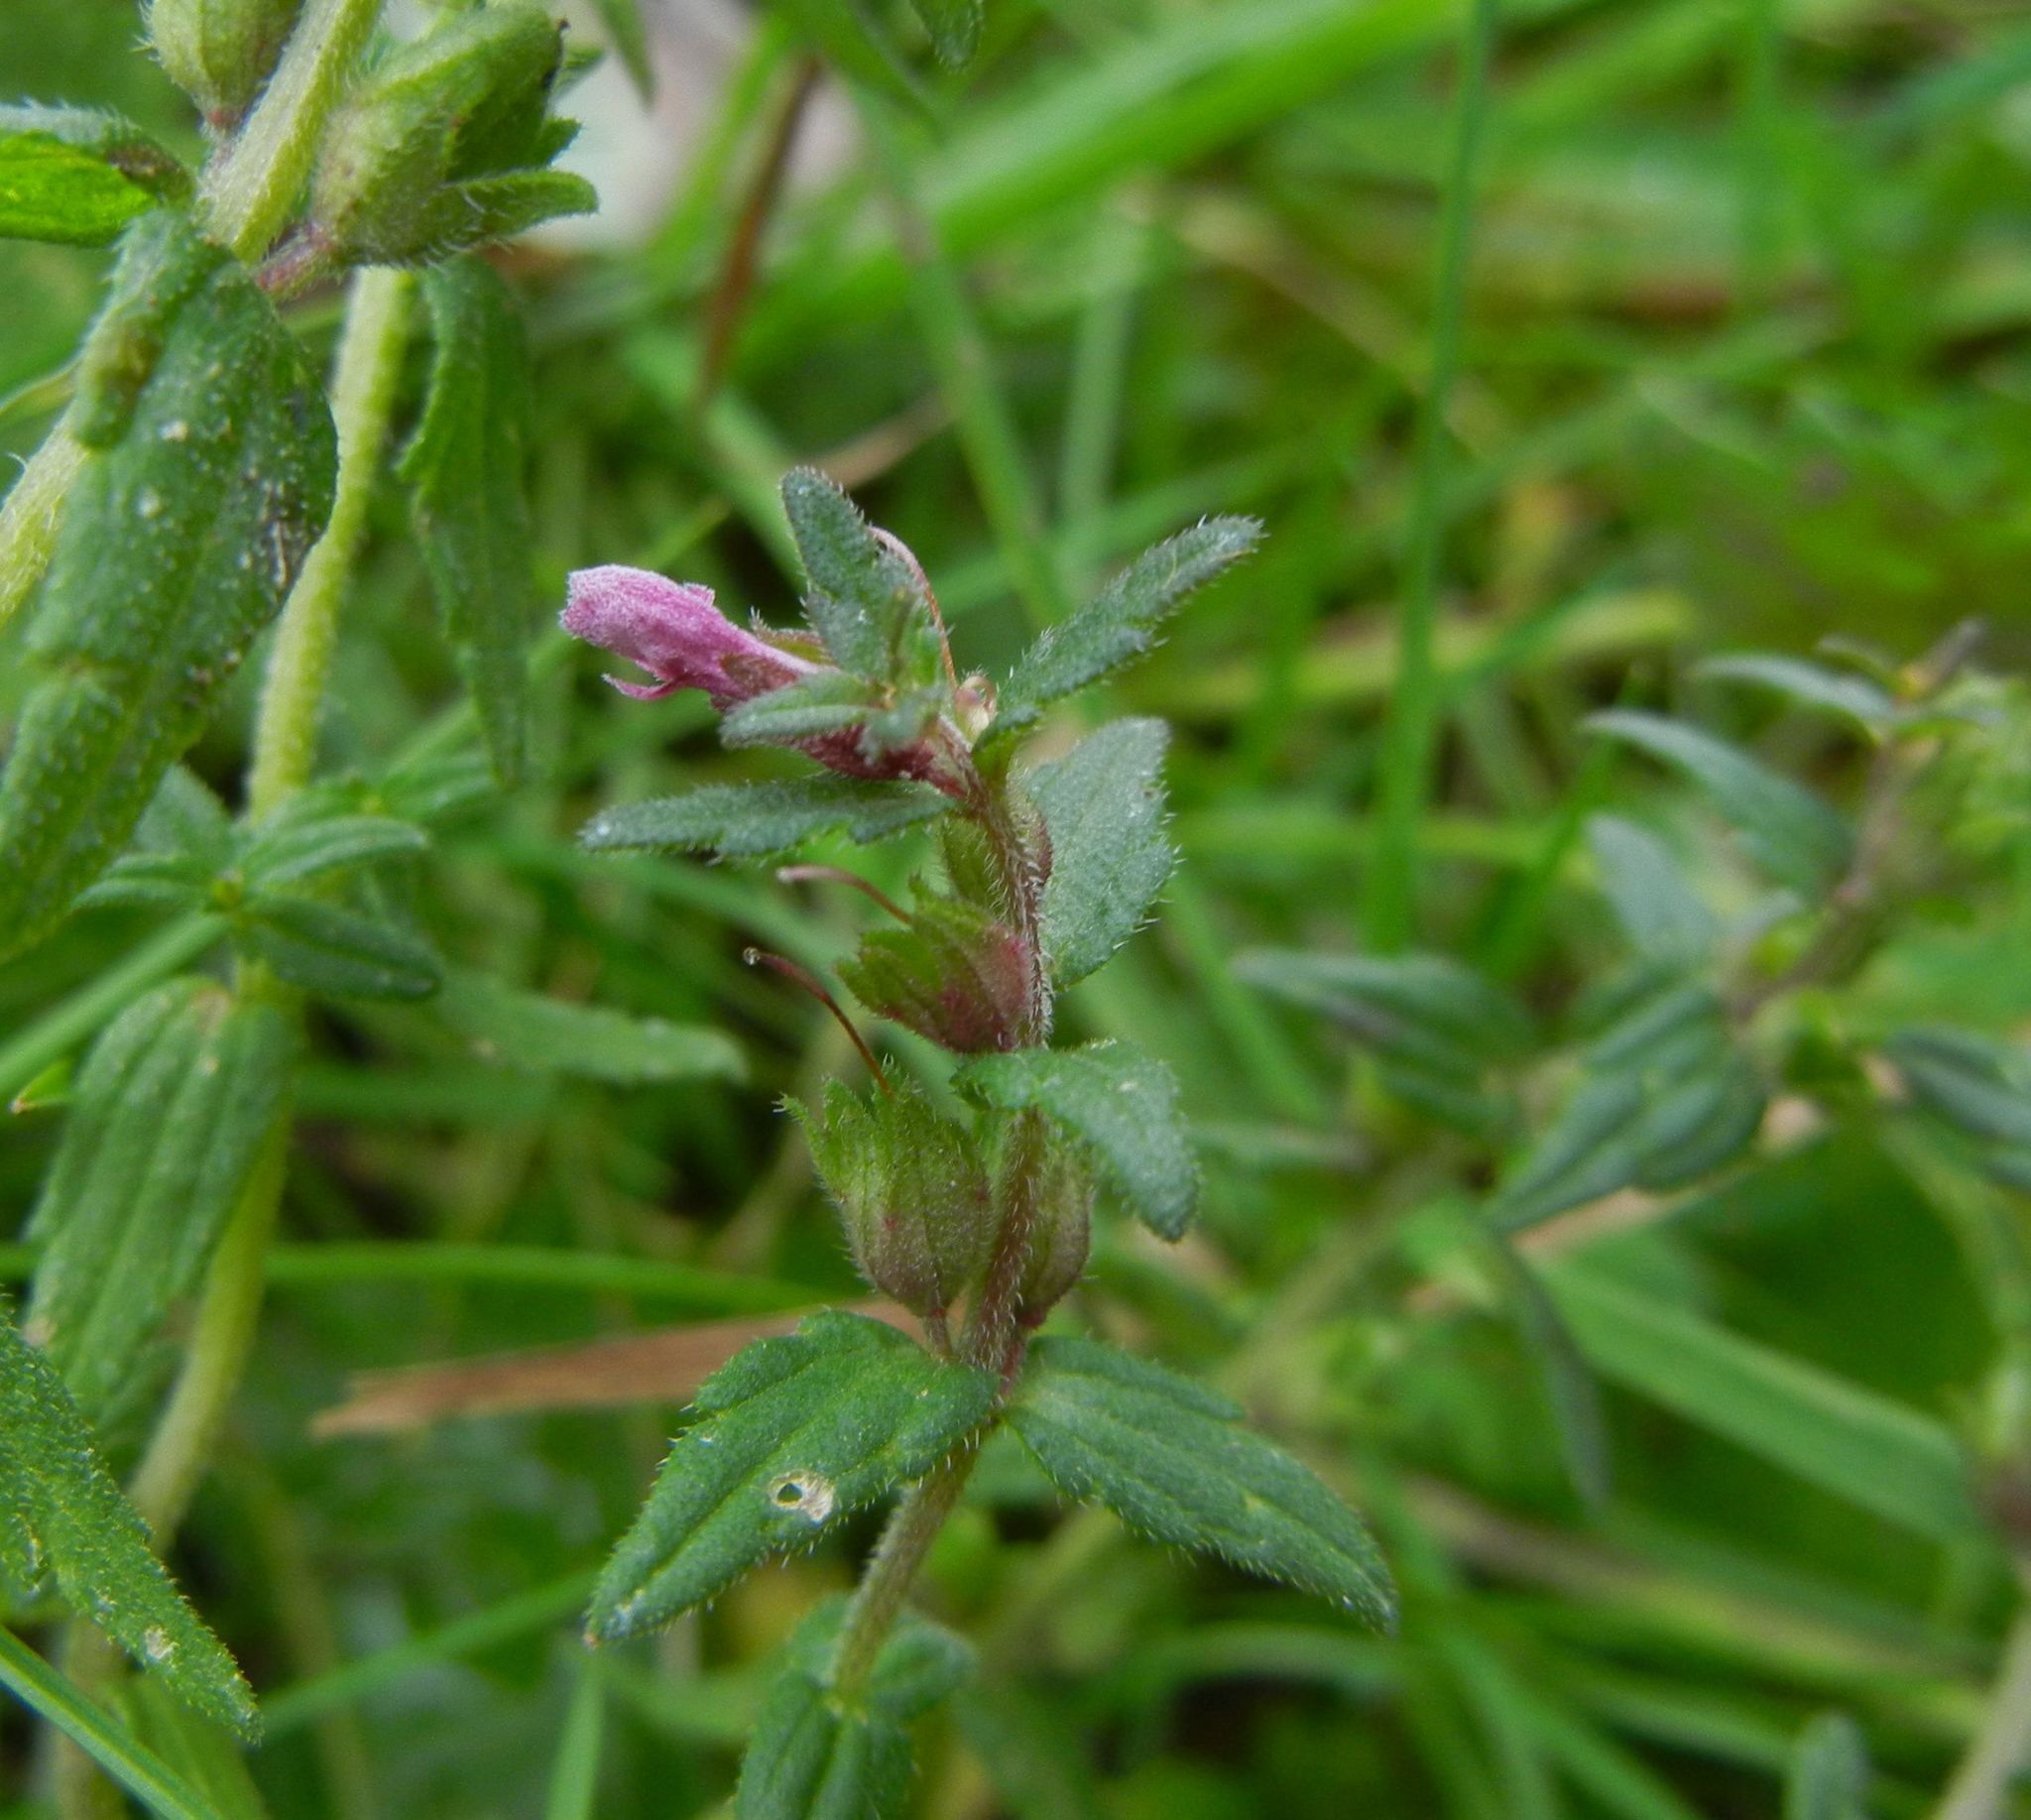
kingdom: Plantae
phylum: Tracheophyta
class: Magnoliopsida
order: Lamiales
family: Orobanchaceae
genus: Odontites
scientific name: Odontites vulgaris
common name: Broomrape
